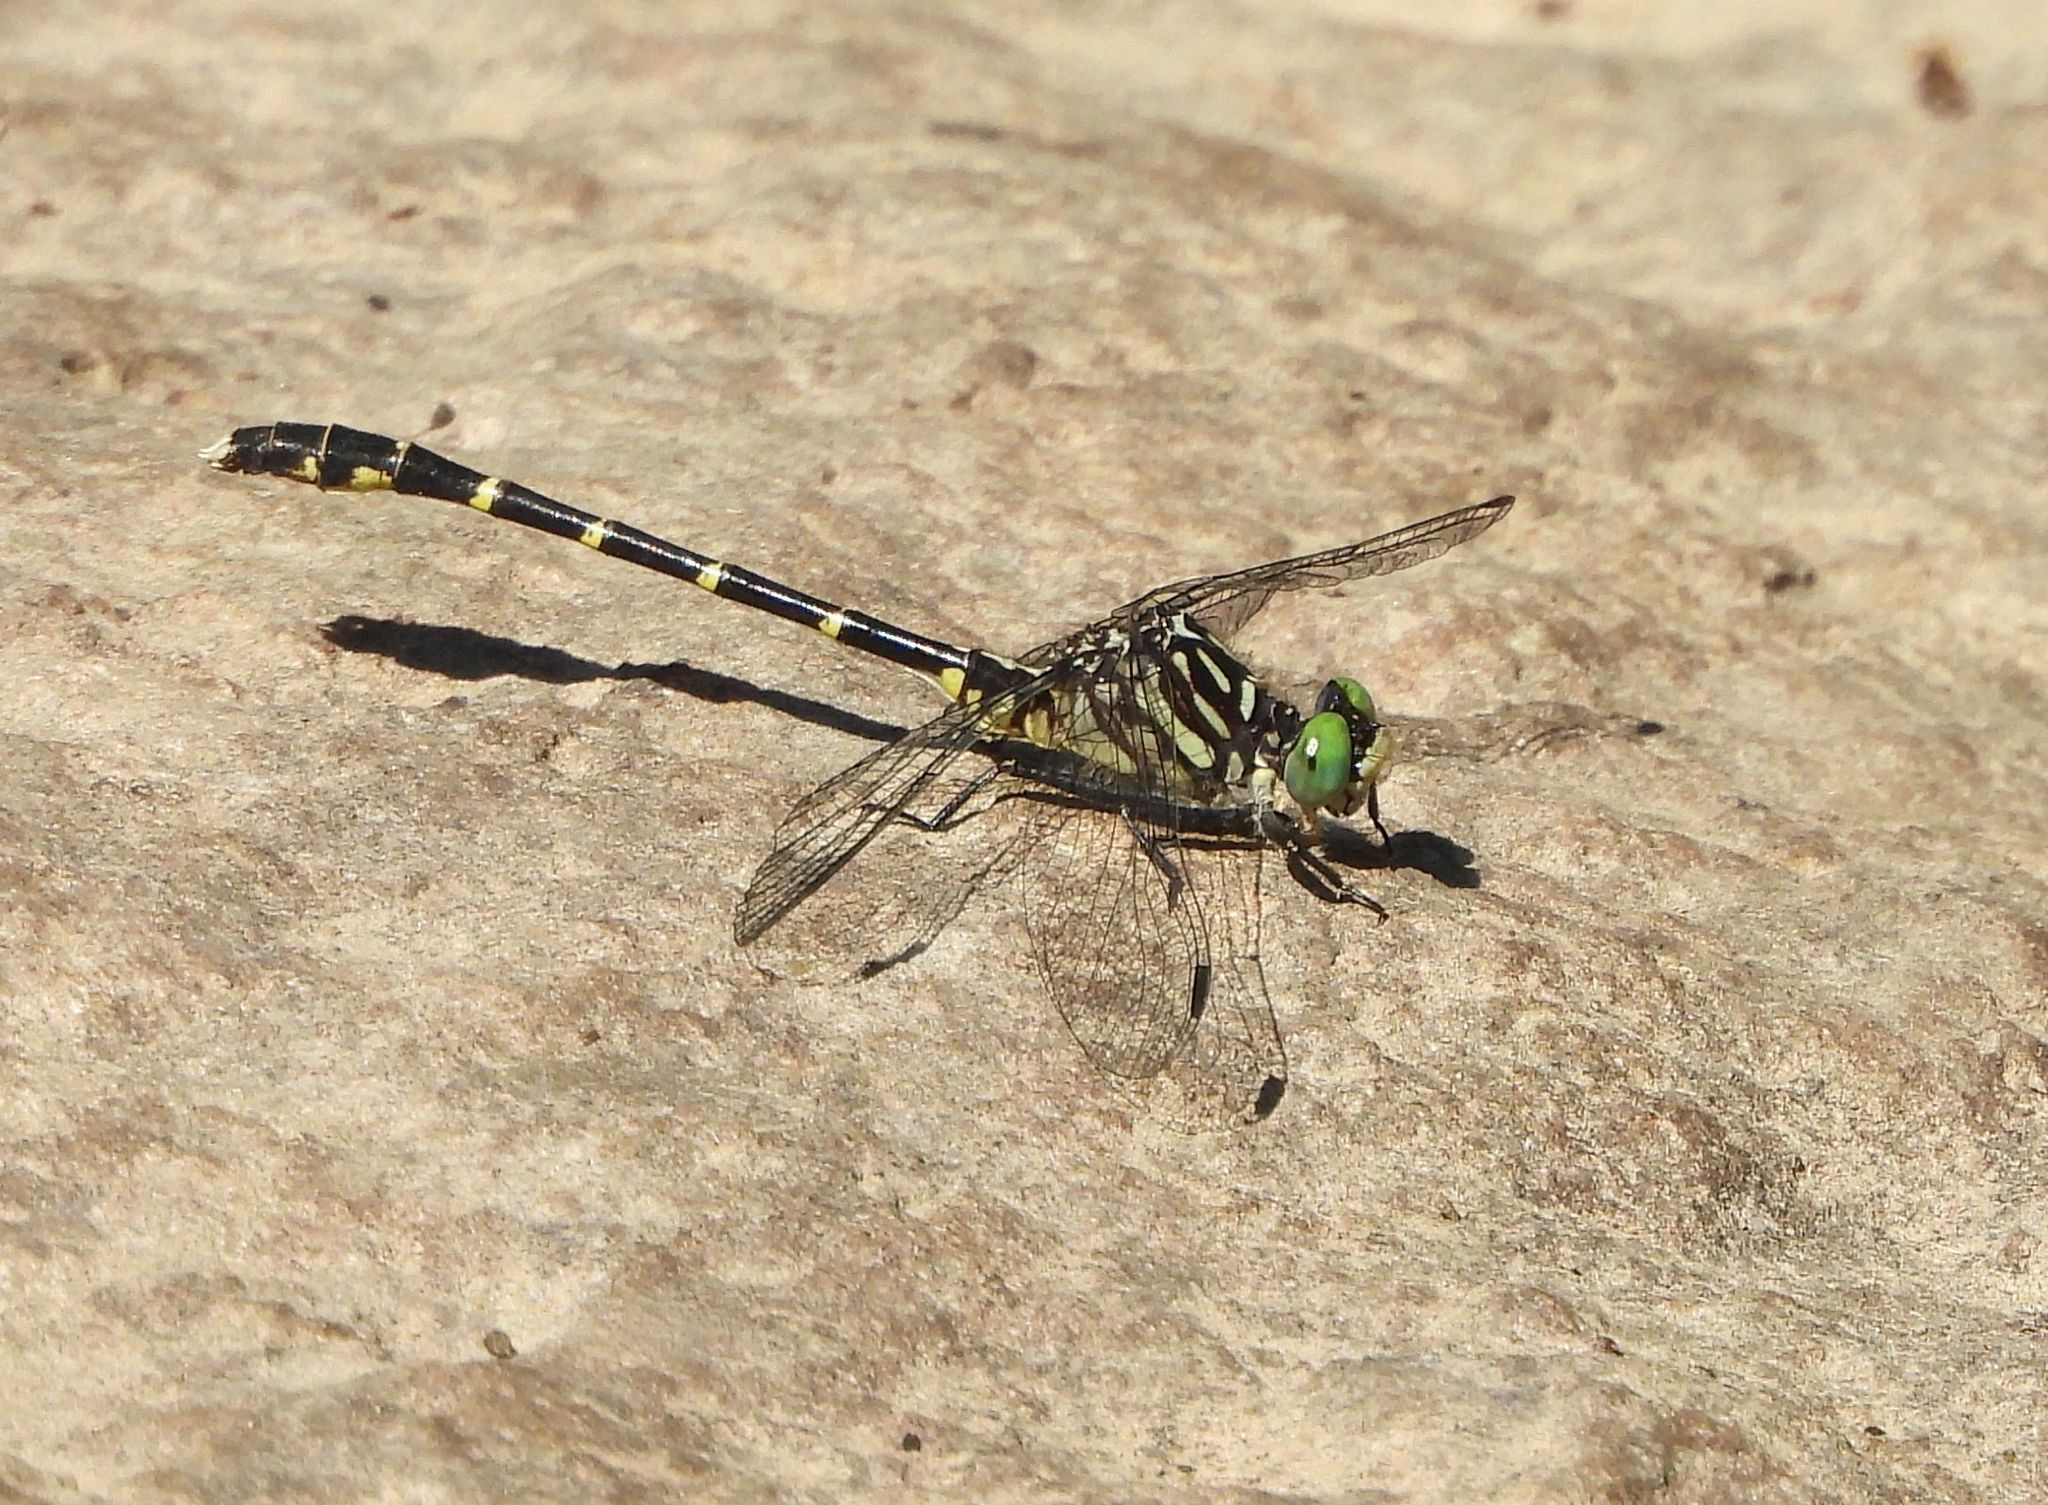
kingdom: Animalia
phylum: Arthropoda
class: Insecta
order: Odonata
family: Gomphidae
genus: Stylogomphus
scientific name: Stylogomphus albistylus
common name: Eastern least clubtail
